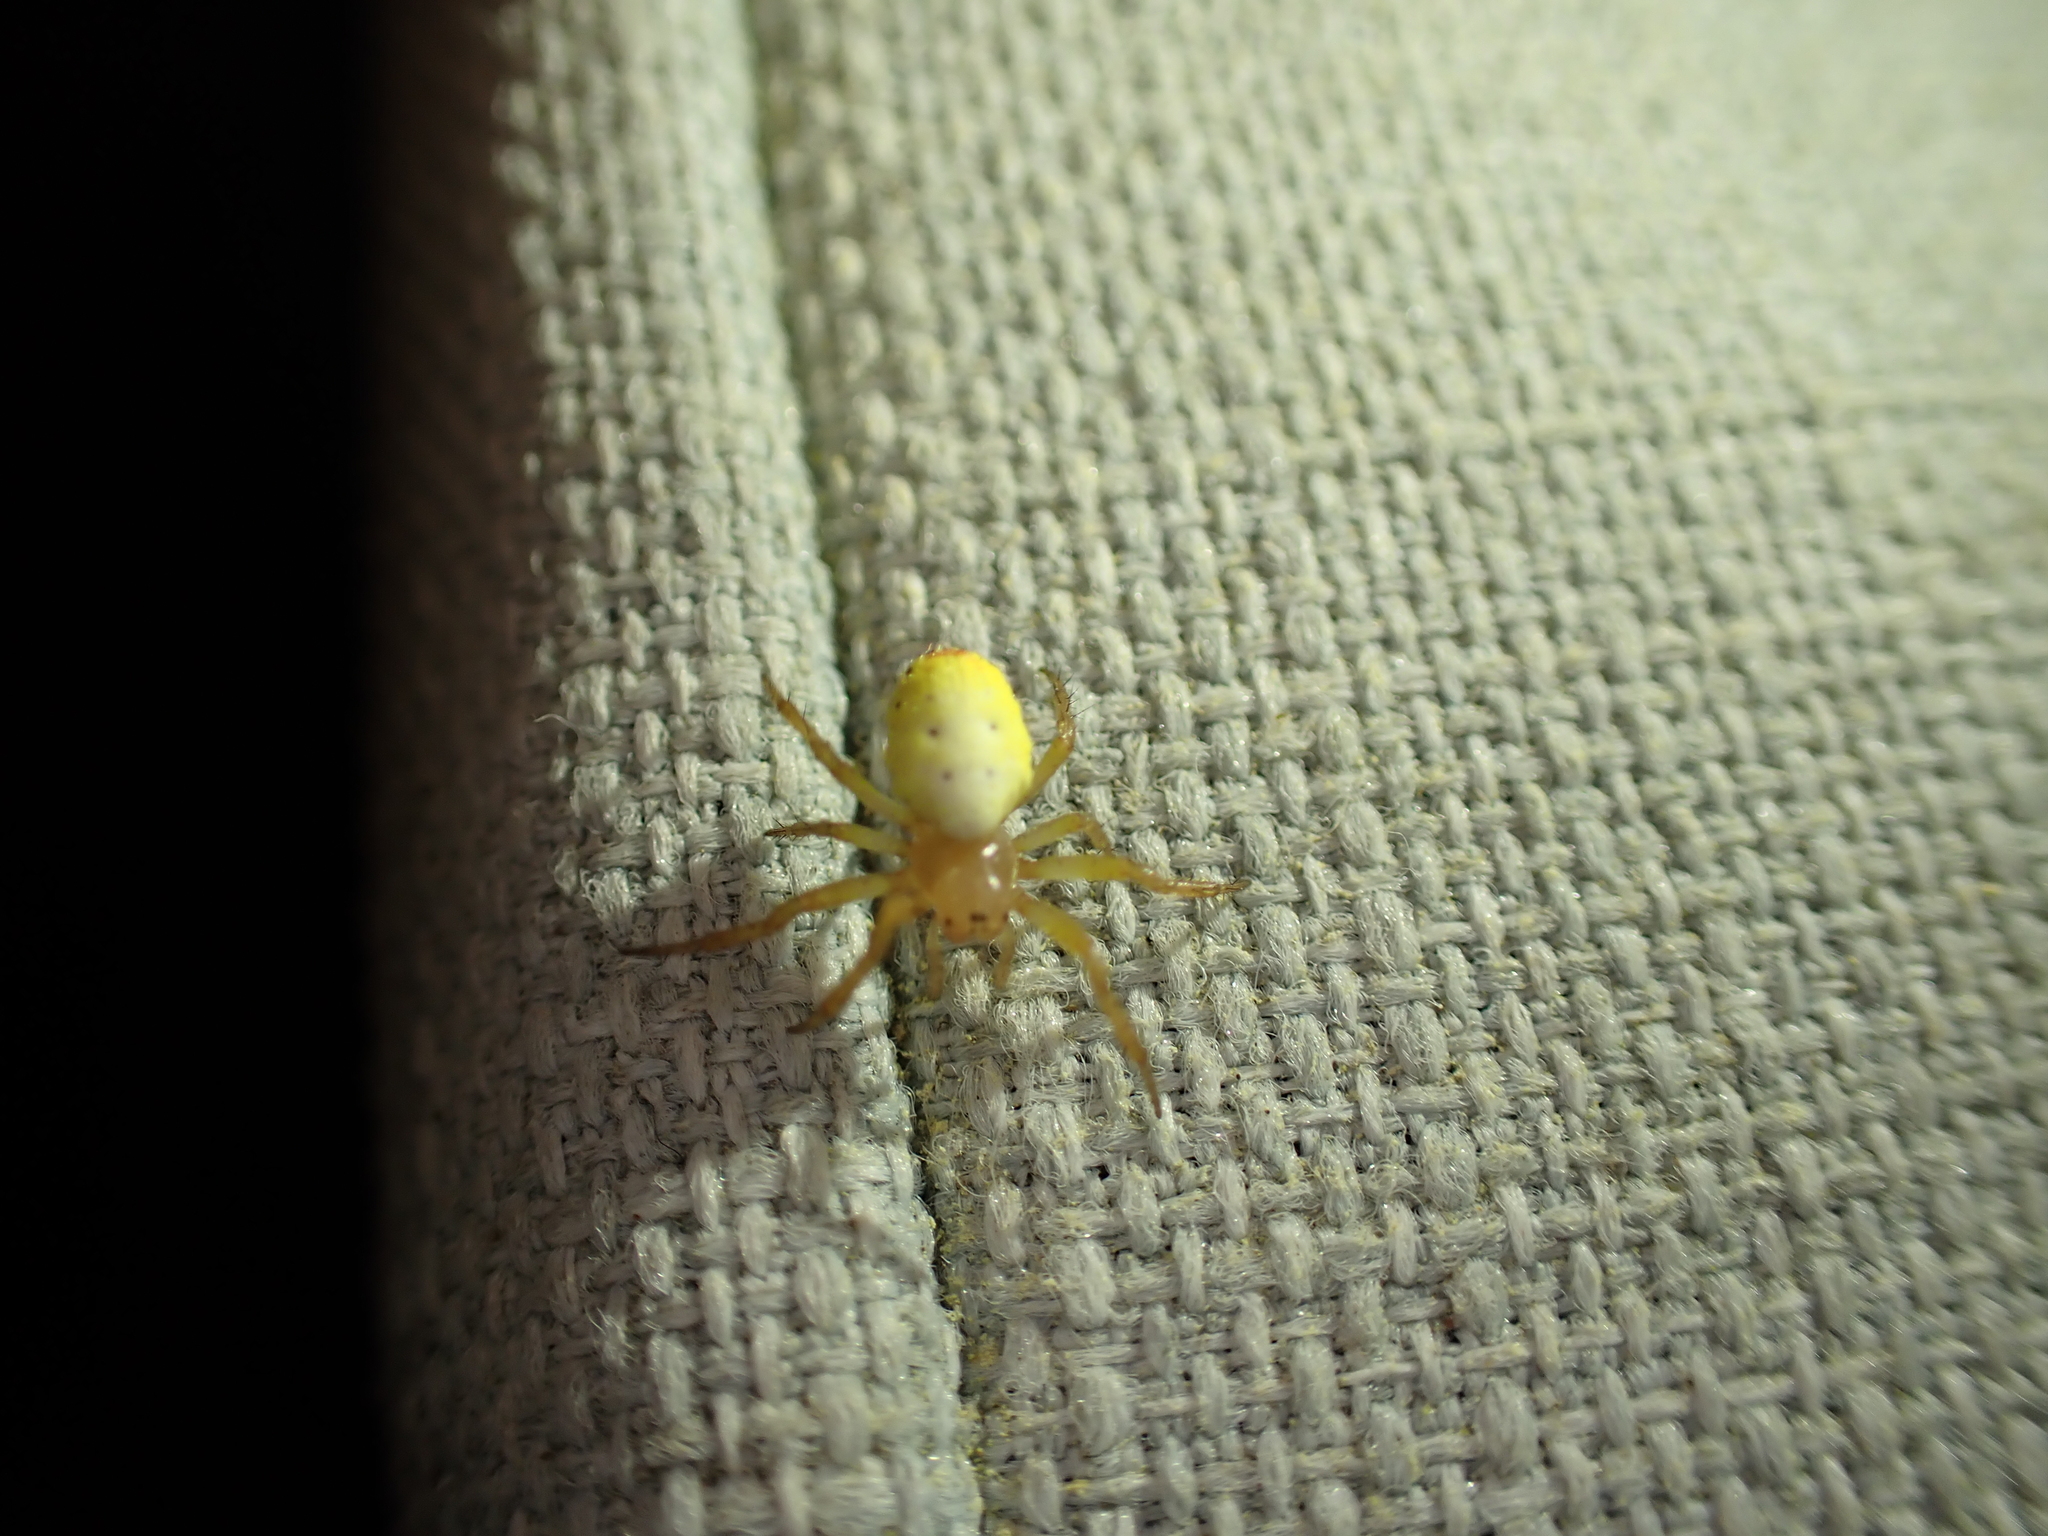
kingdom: Animalia
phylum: Arthropoda
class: Arachnida
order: Araneae
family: Araneidae
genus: Araniella
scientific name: Araniella displicata
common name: Sixspotted orb weaver
